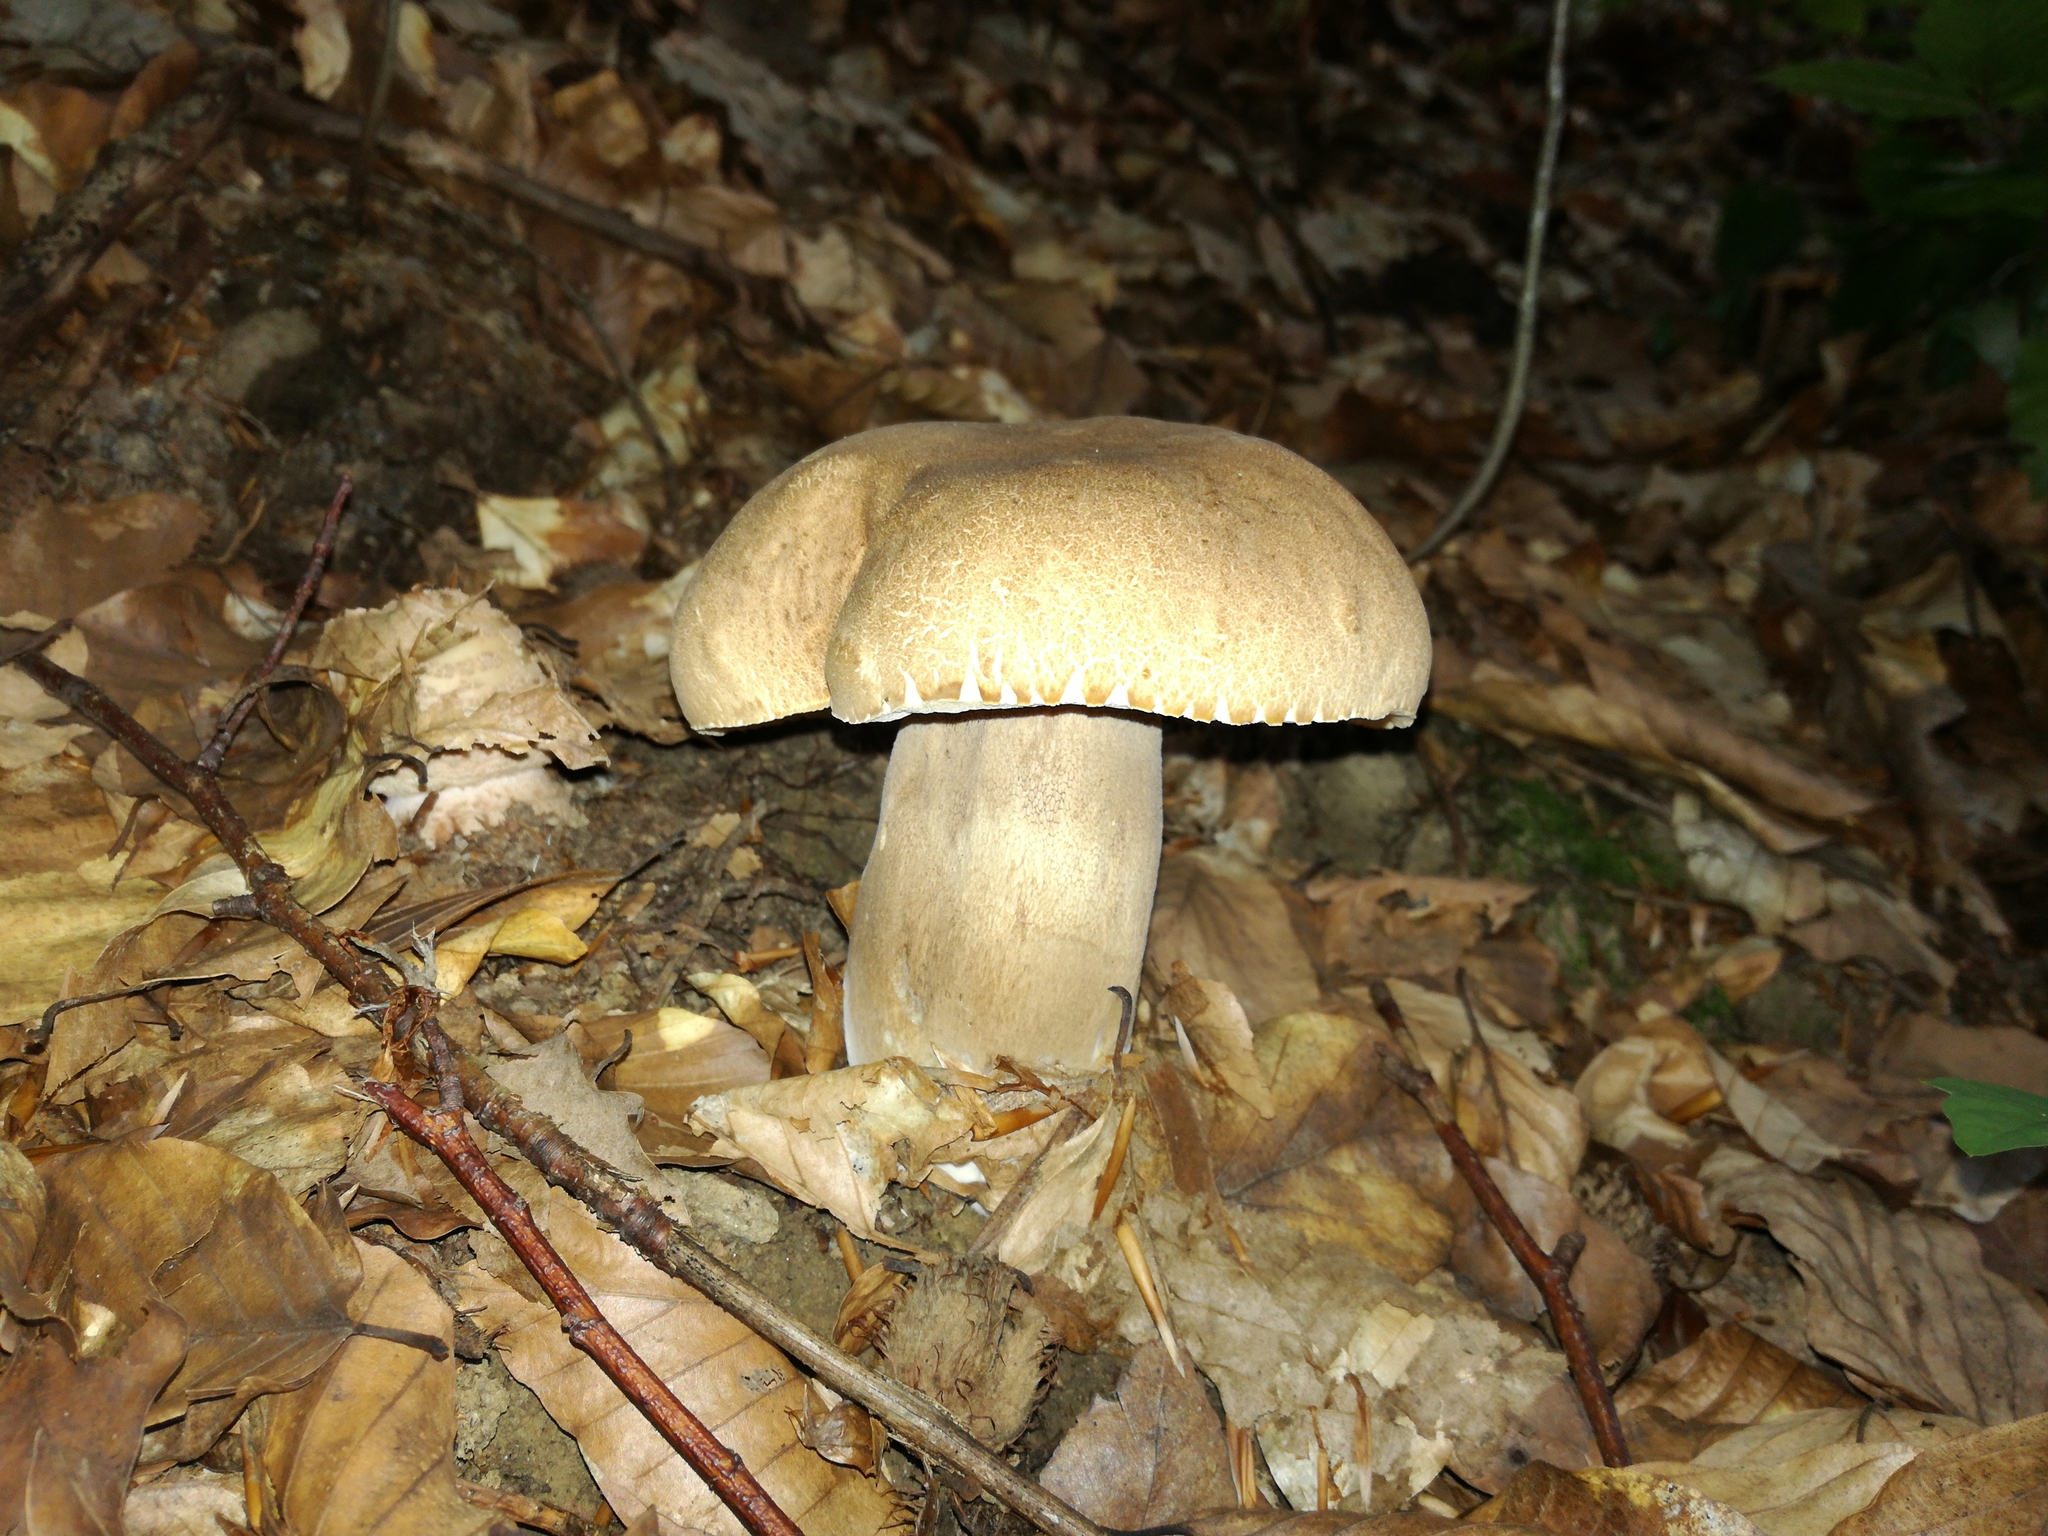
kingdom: Fungi
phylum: Basidiomycota
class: Agaricomycetes
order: Boletales
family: Boletaceae
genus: Boletus
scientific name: Boletus reticulatus
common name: Summer bolete
